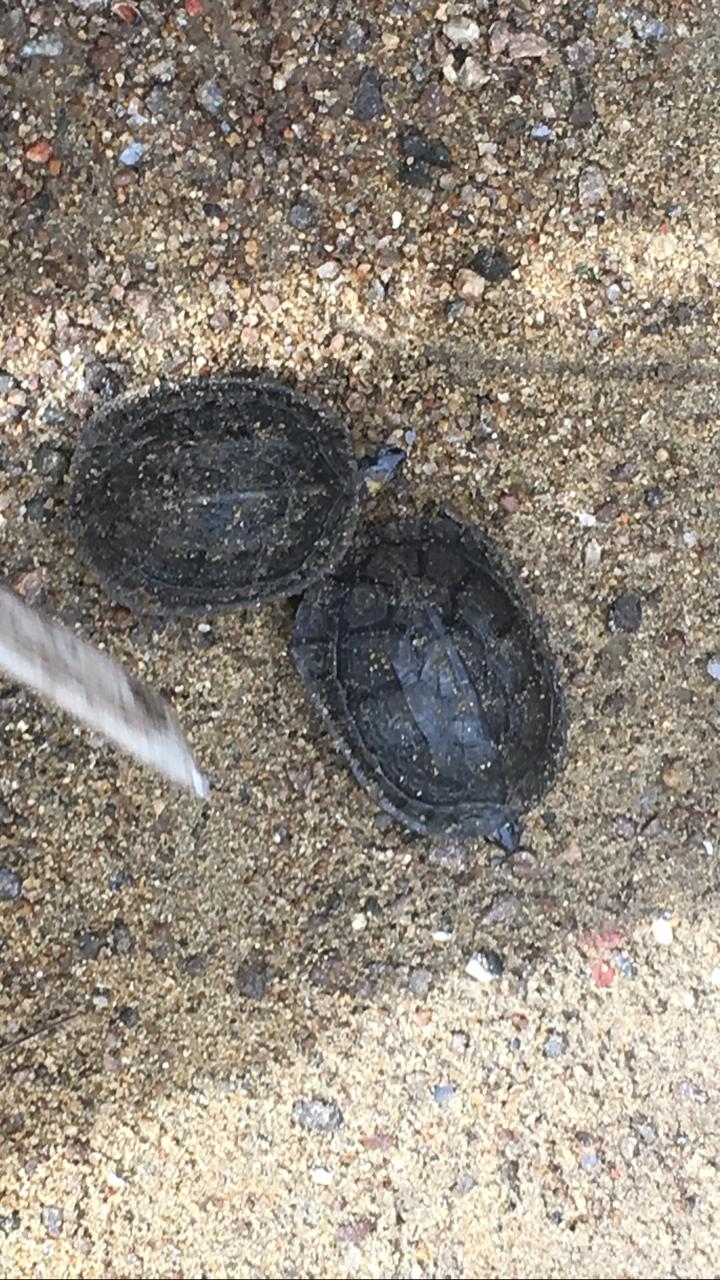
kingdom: Animalia
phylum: Chordata
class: Testudines
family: Geoemydidae
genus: Melanochelys
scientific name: Melanochelys trijuga
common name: Indian black turtle
